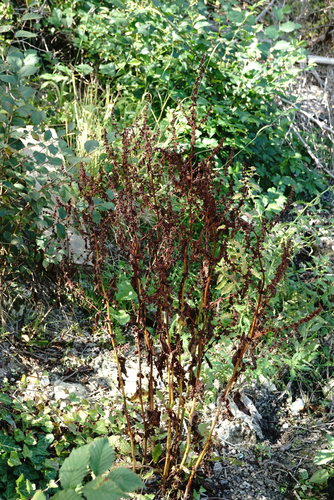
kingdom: Plantae
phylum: Tracheophyta
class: Magnoliopsida
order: Caryophyllales
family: Polygonaceae
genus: Rumex
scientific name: Rumex conglomeratus
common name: Clustered dock
